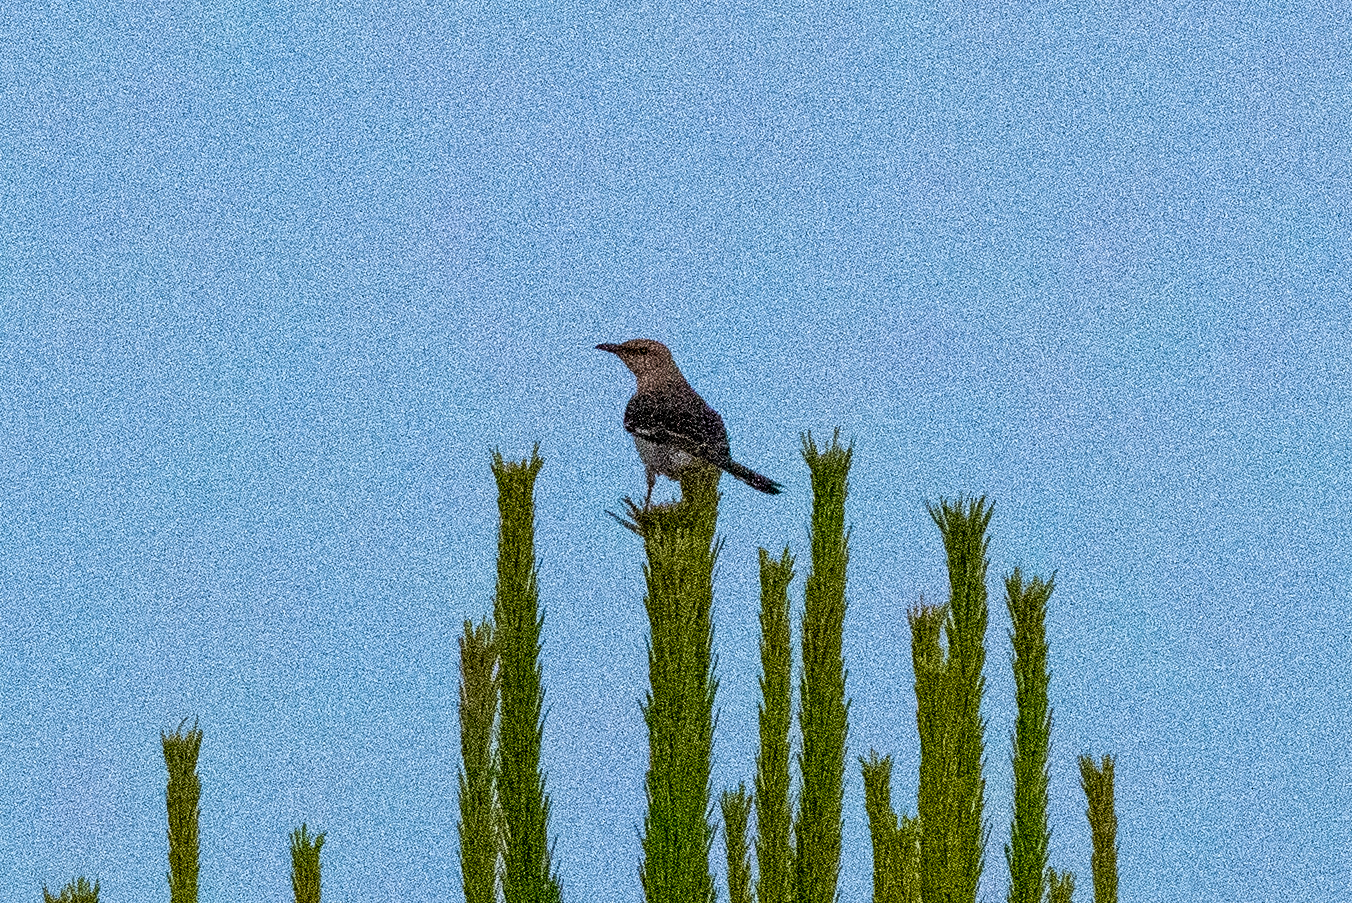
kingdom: Animalia
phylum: Chordata
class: Aves
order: Passeriformes
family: Mimidae
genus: Mimus
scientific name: Mimus polyglottos
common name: Northern mockingbird
